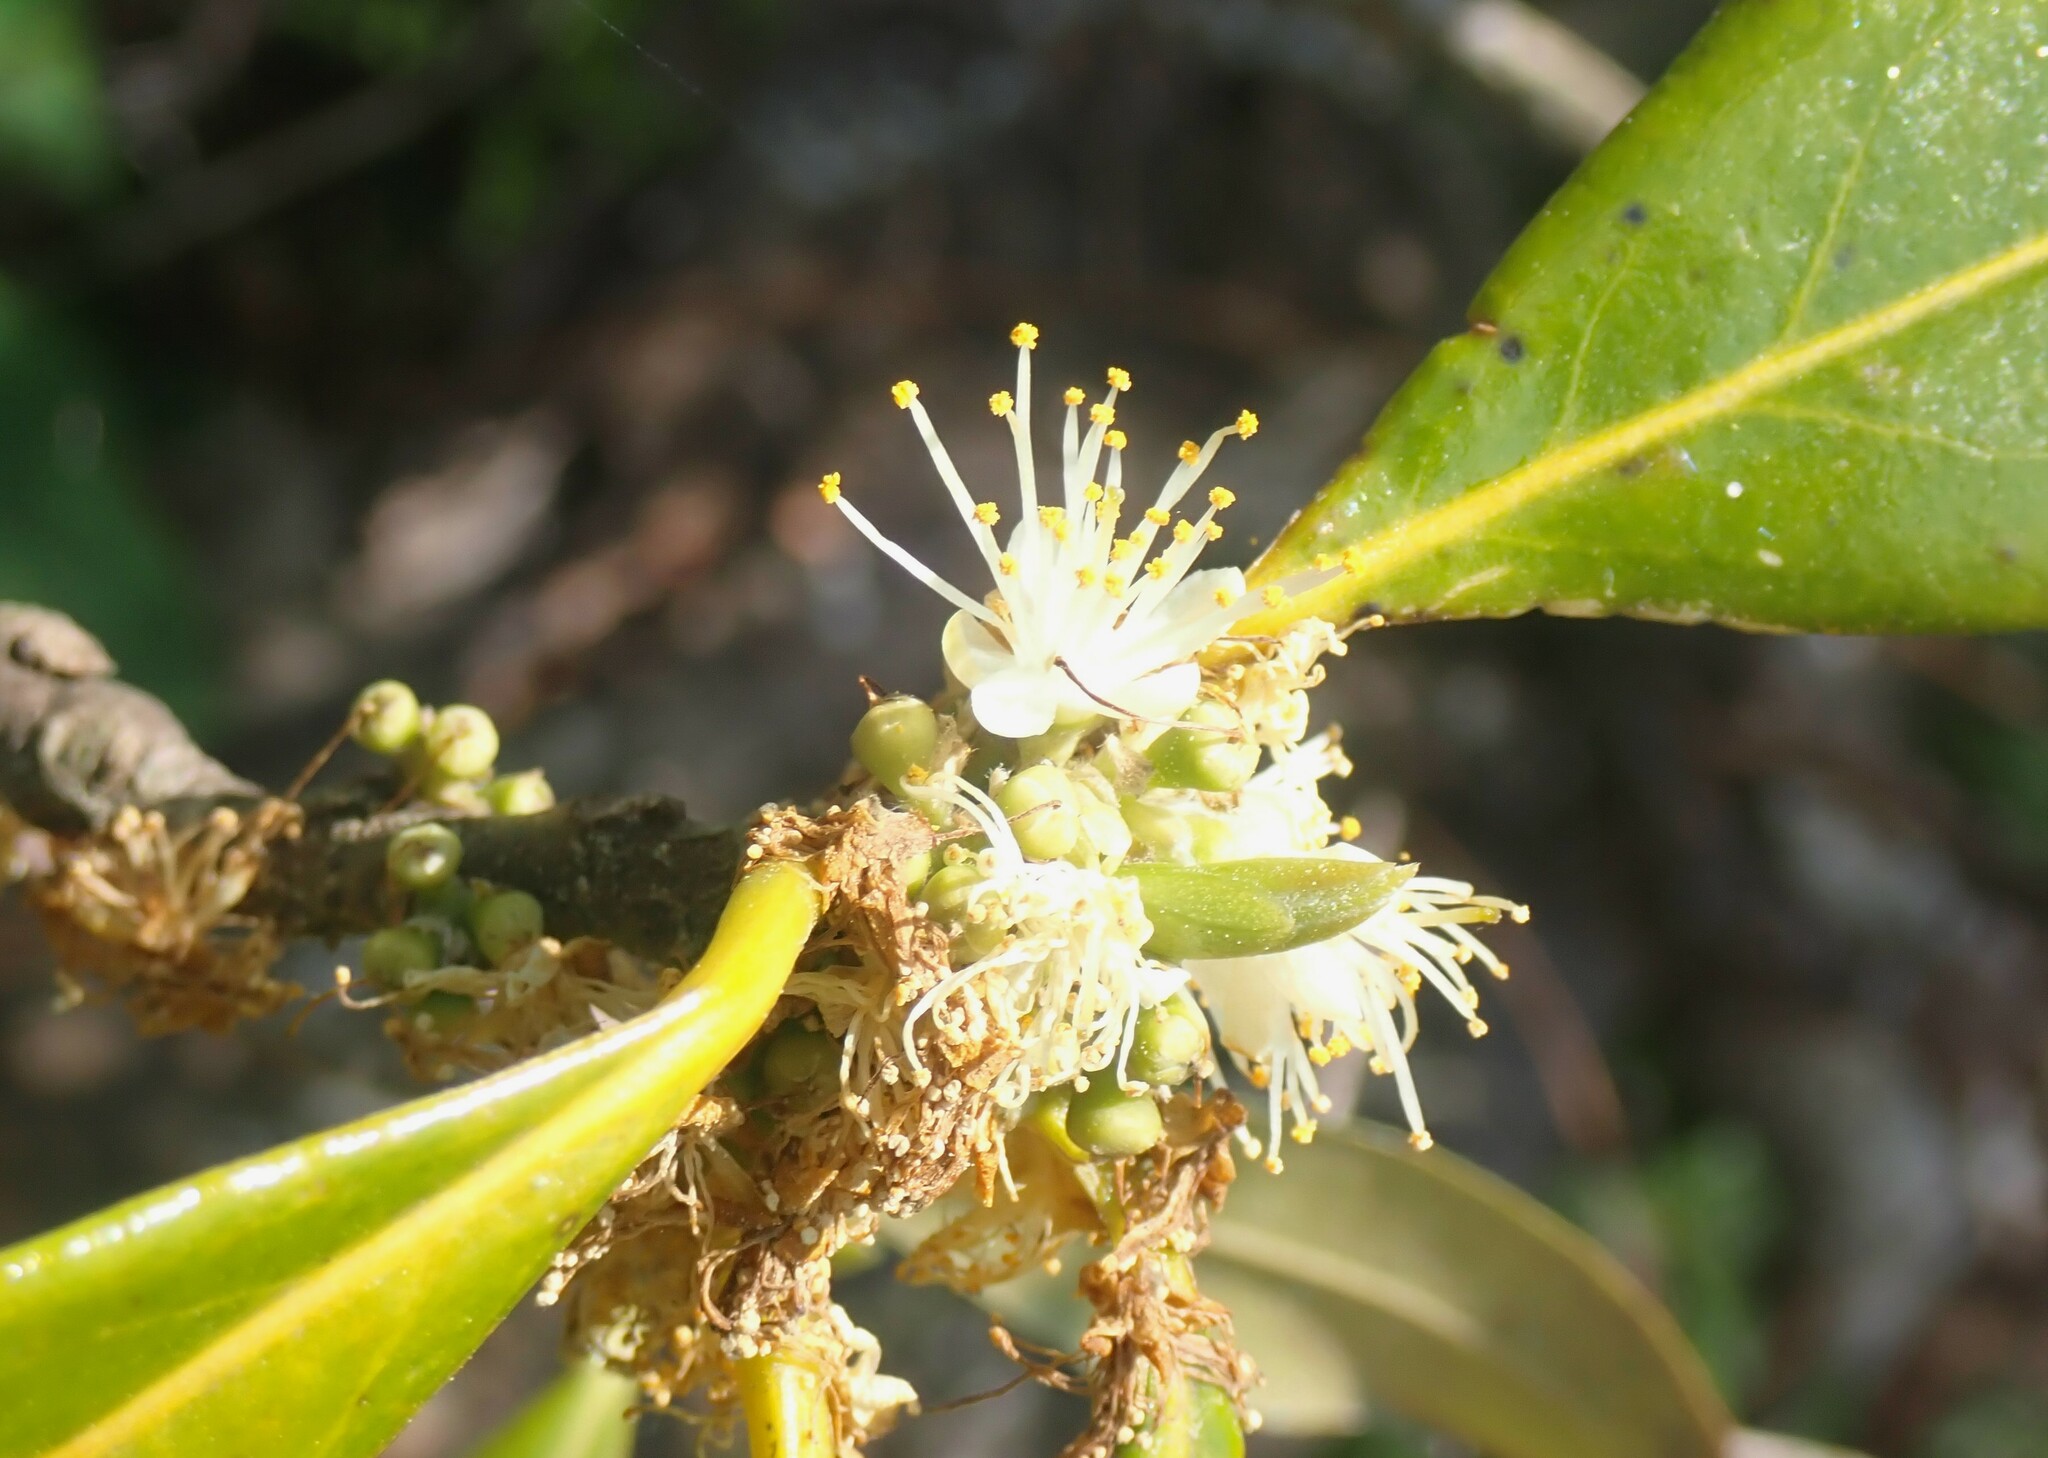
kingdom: Plantae
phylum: Tracheophyta
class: Magnoliopsida
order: Ericales
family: Symplocaceae
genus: Symplocos
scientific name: Symplocos tinctoria
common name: Horse-sugar
